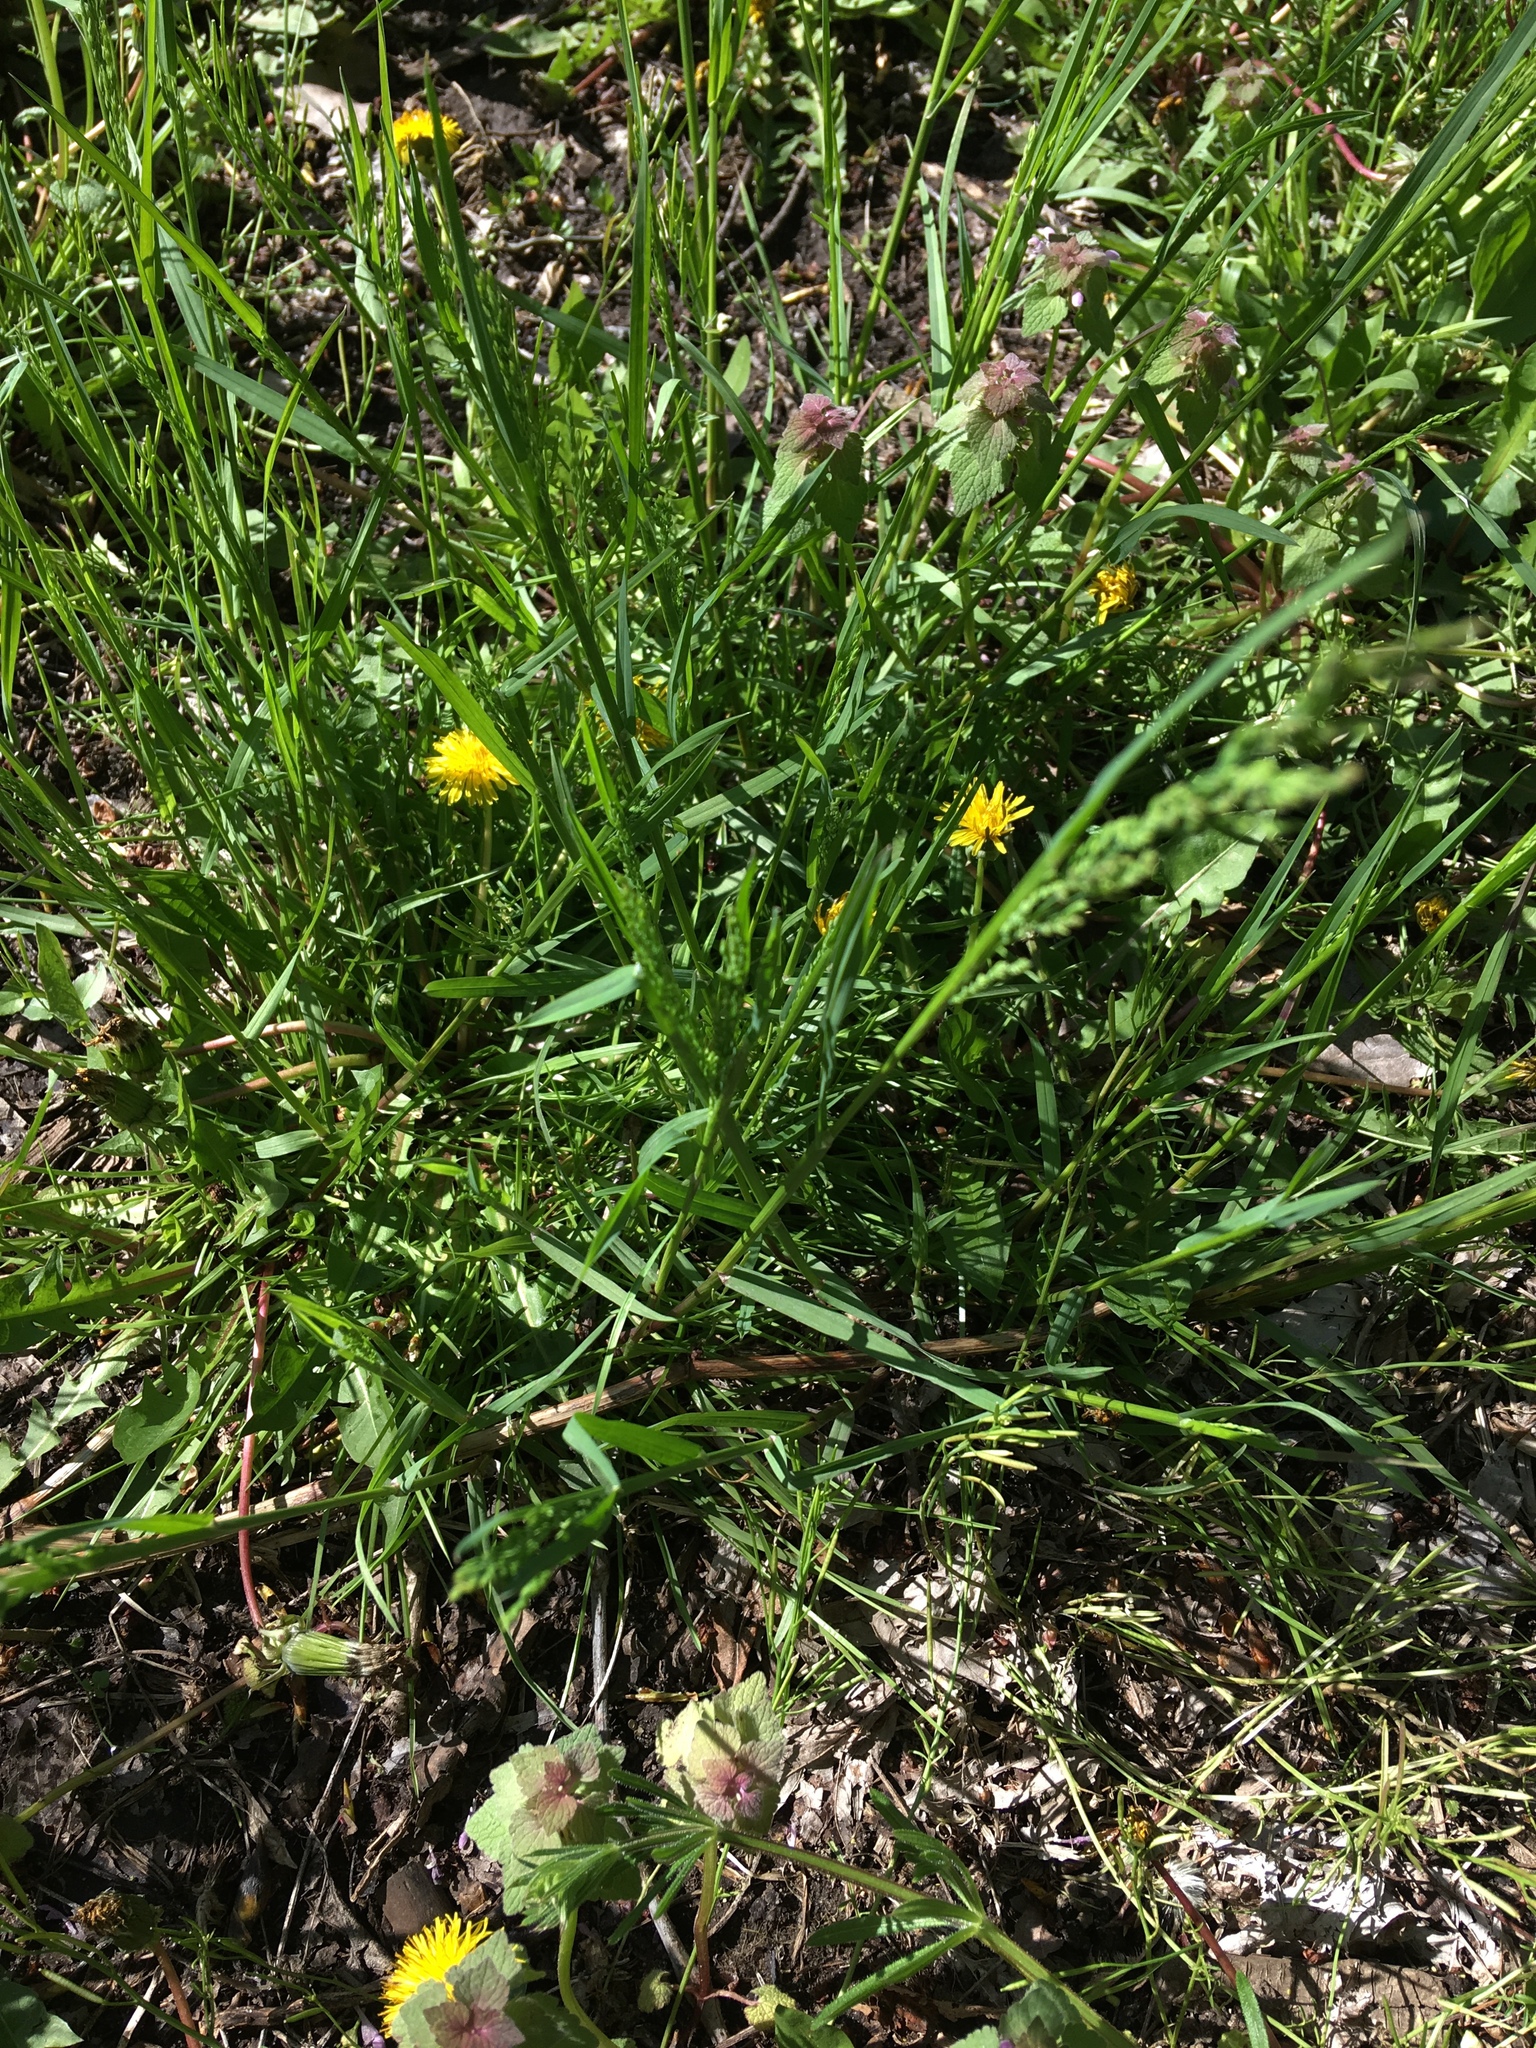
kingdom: Plantae
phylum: Tracheophyta
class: Magnoliopsida
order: Asterales
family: Asteraceae
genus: Taraxacum
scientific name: Taraxacum officinale
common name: Common dandelion
